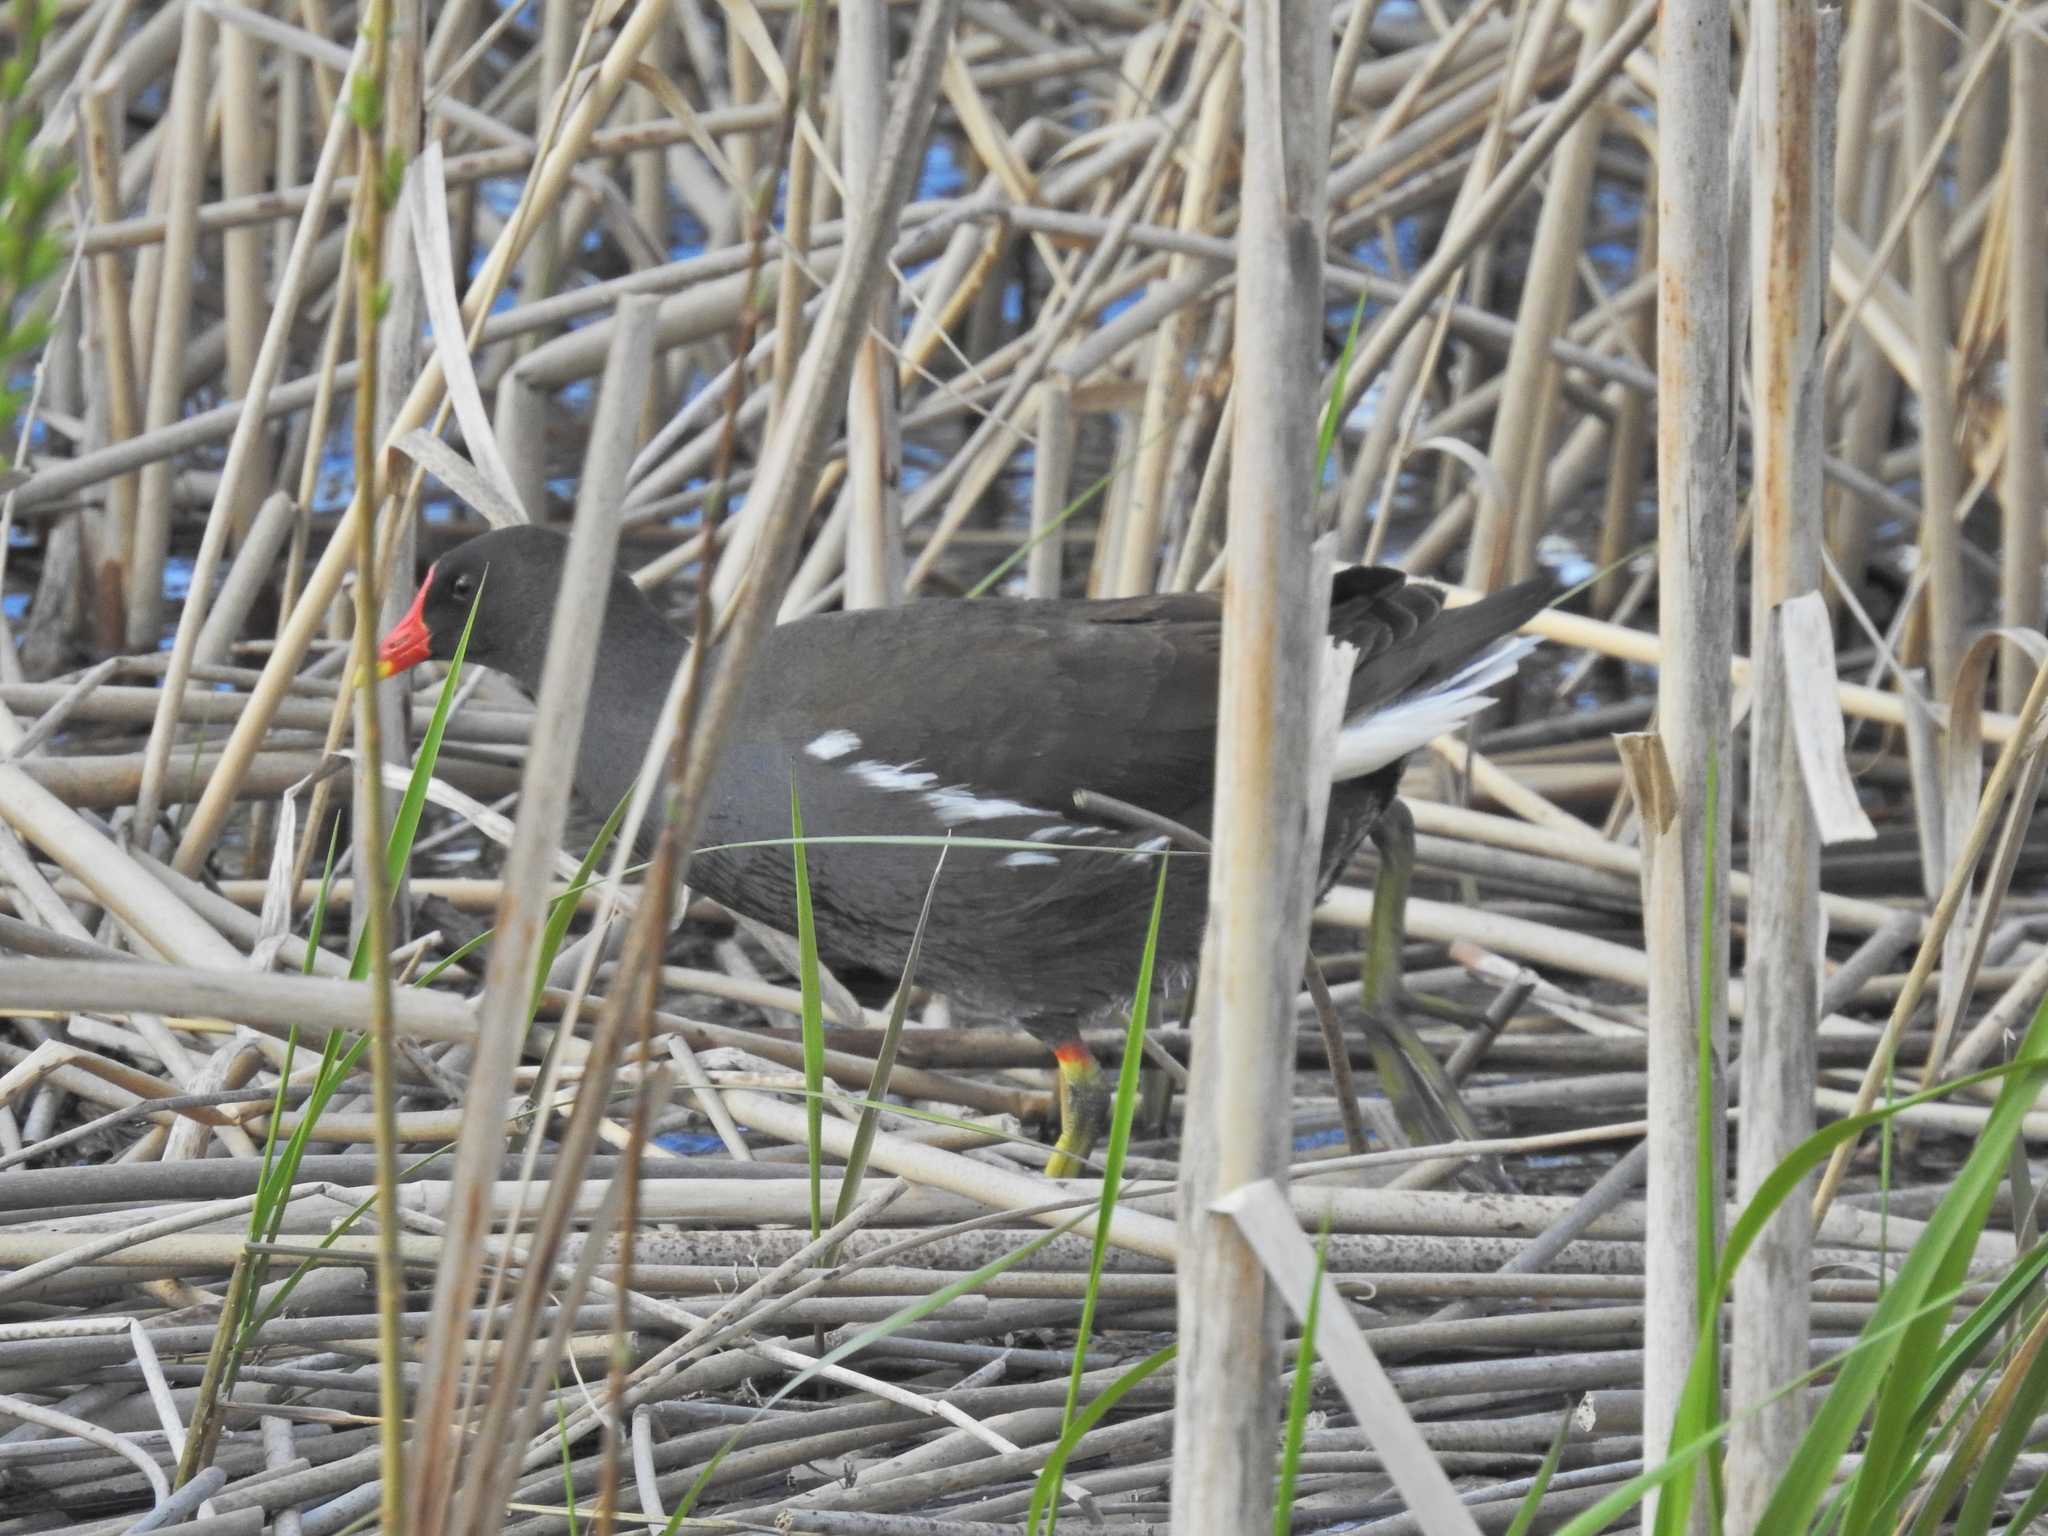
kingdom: Animalia
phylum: Chordata
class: Aves
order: Gruiformes
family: Rallidae
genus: Gallinula
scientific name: Gallinula chloropus
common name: Common moorhen
